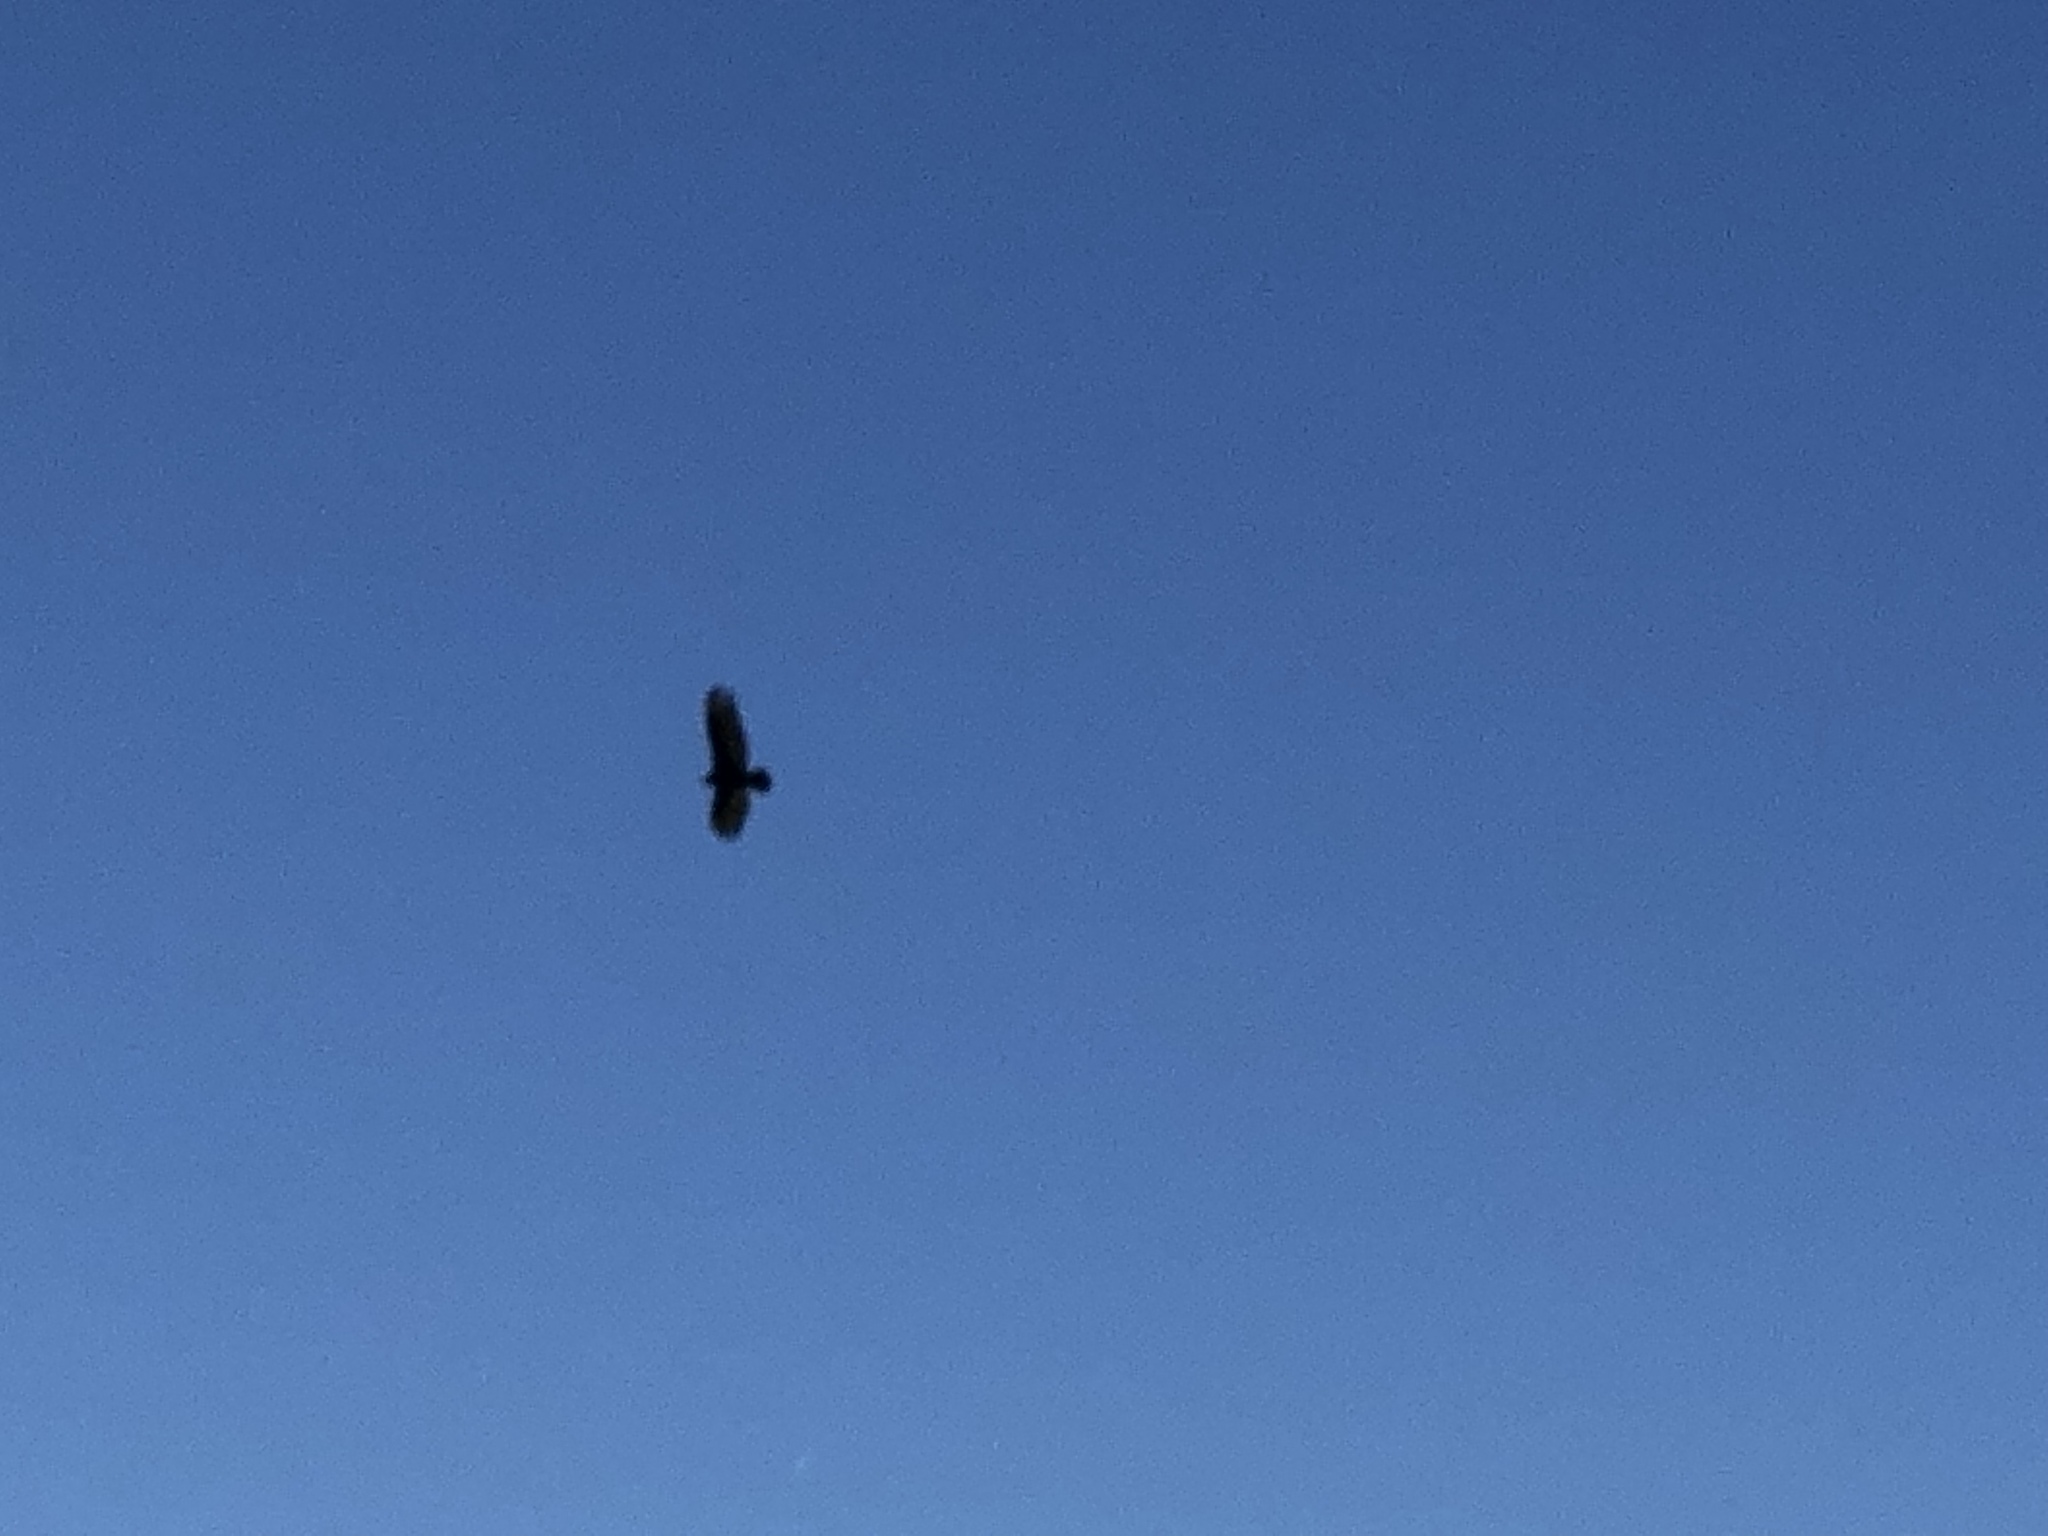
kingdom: Animalia
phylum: Chordata
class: Aves
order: Accipitriformes
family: Cathartidae
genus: Cathartes
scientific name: Cathartes aura
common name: Turkey vulture
